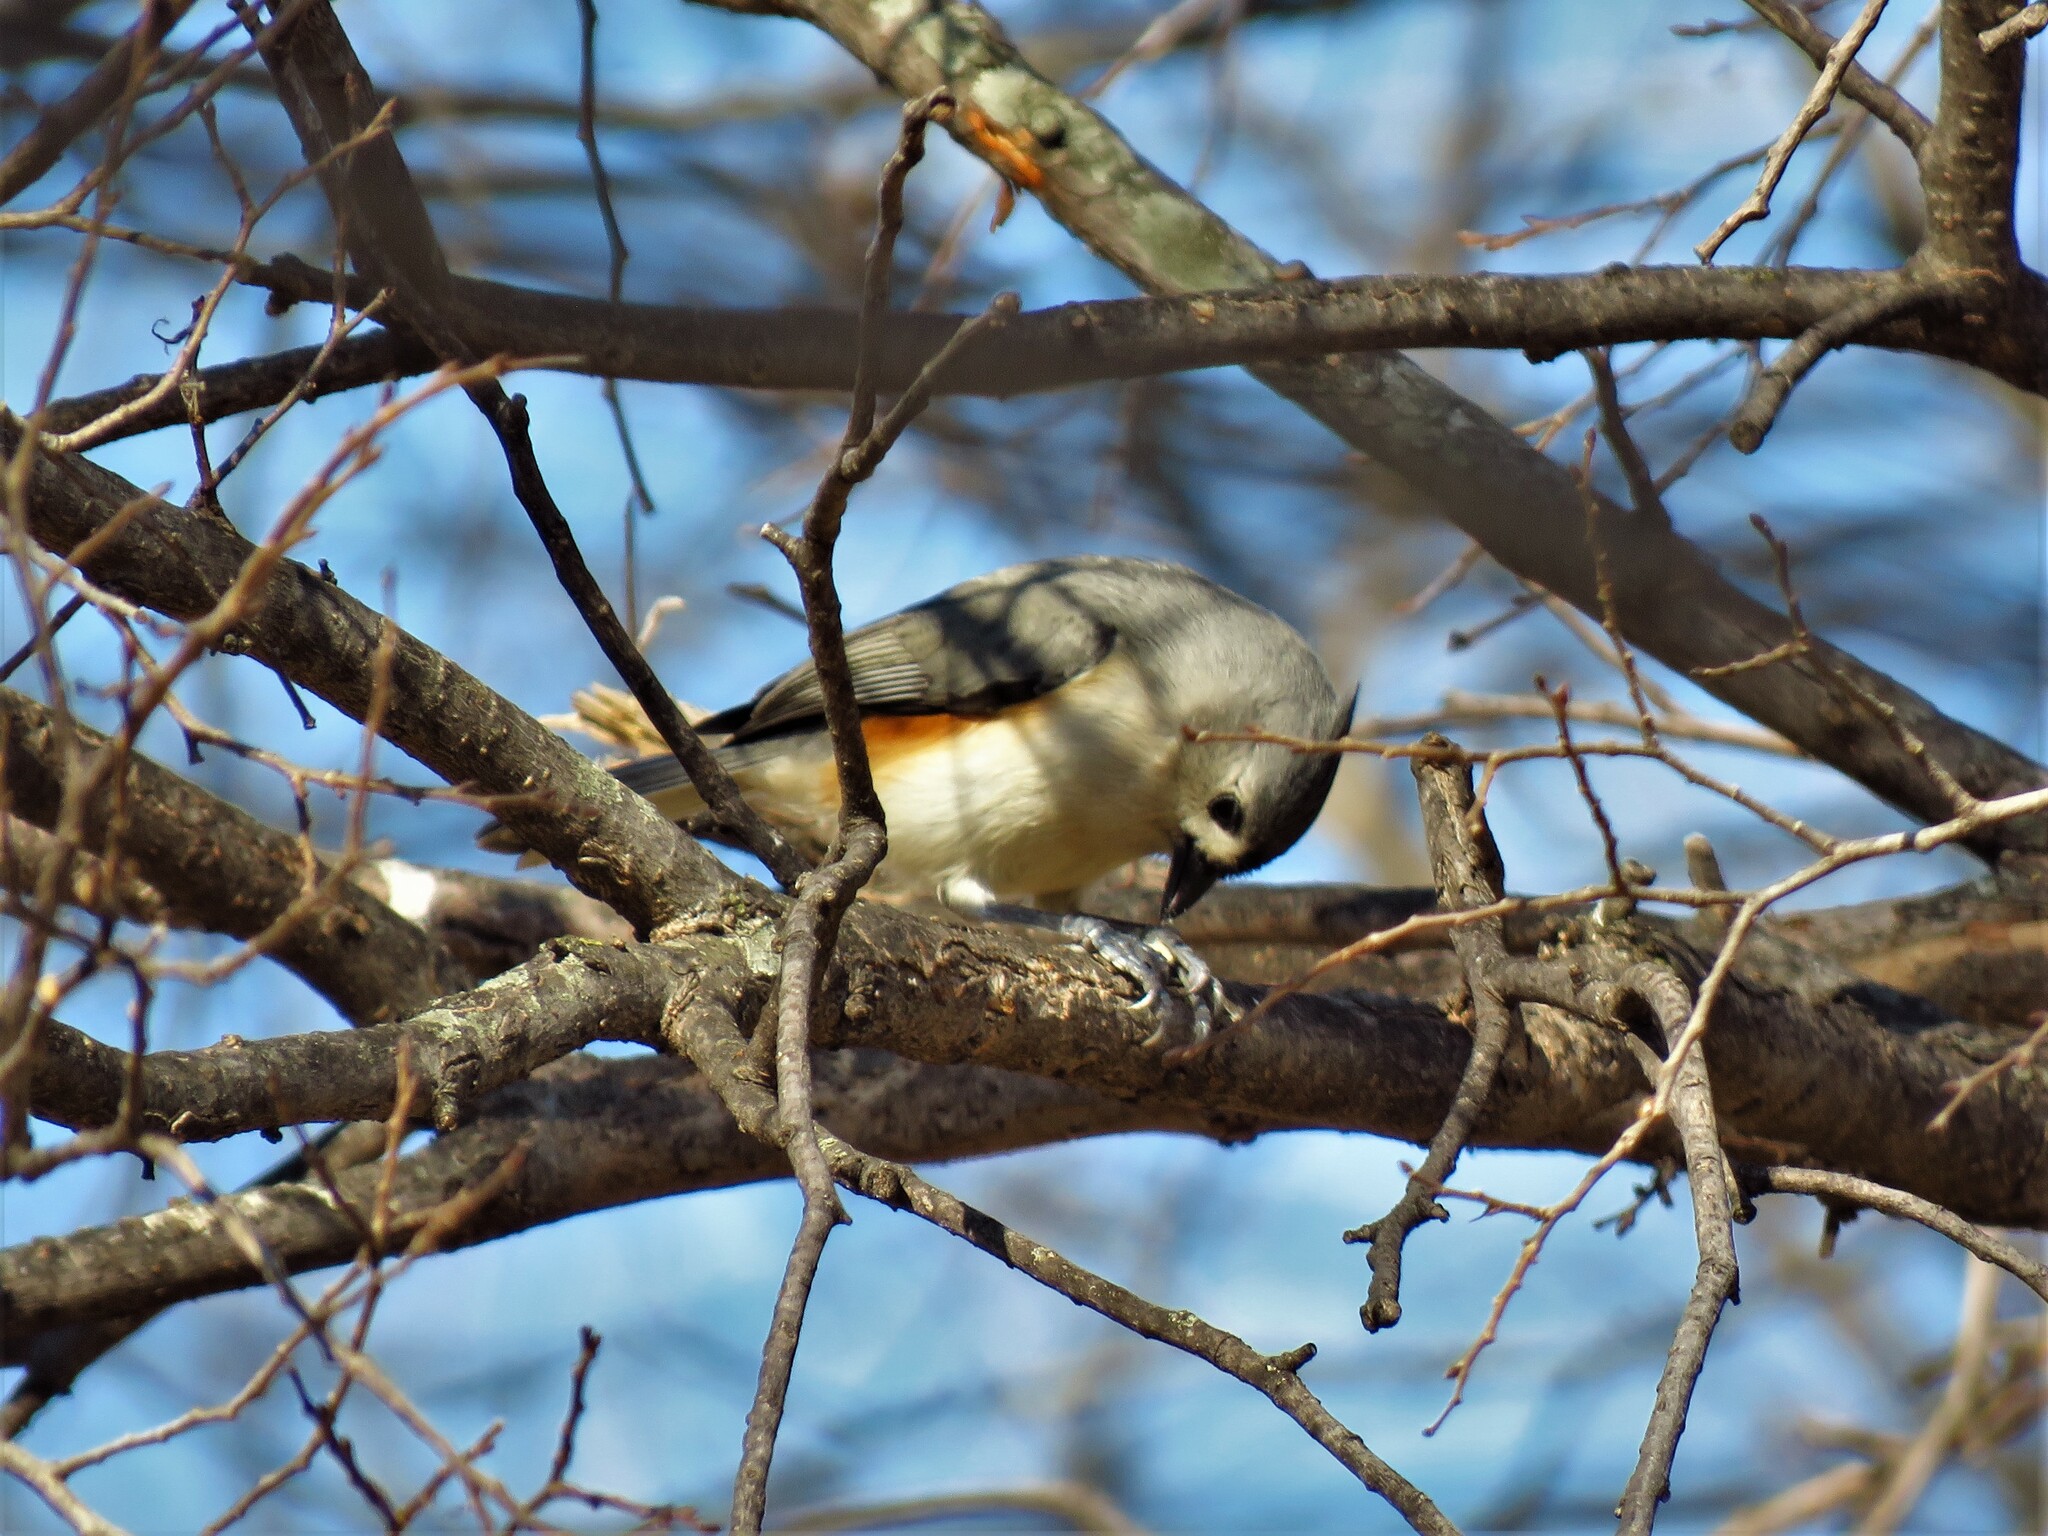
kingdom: Animalia
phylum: Chordata
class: Aves
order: Passeriformes
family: Paridae
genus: Baeolophus
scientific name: Baeolophus bicolor
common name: Tufted titmouse
